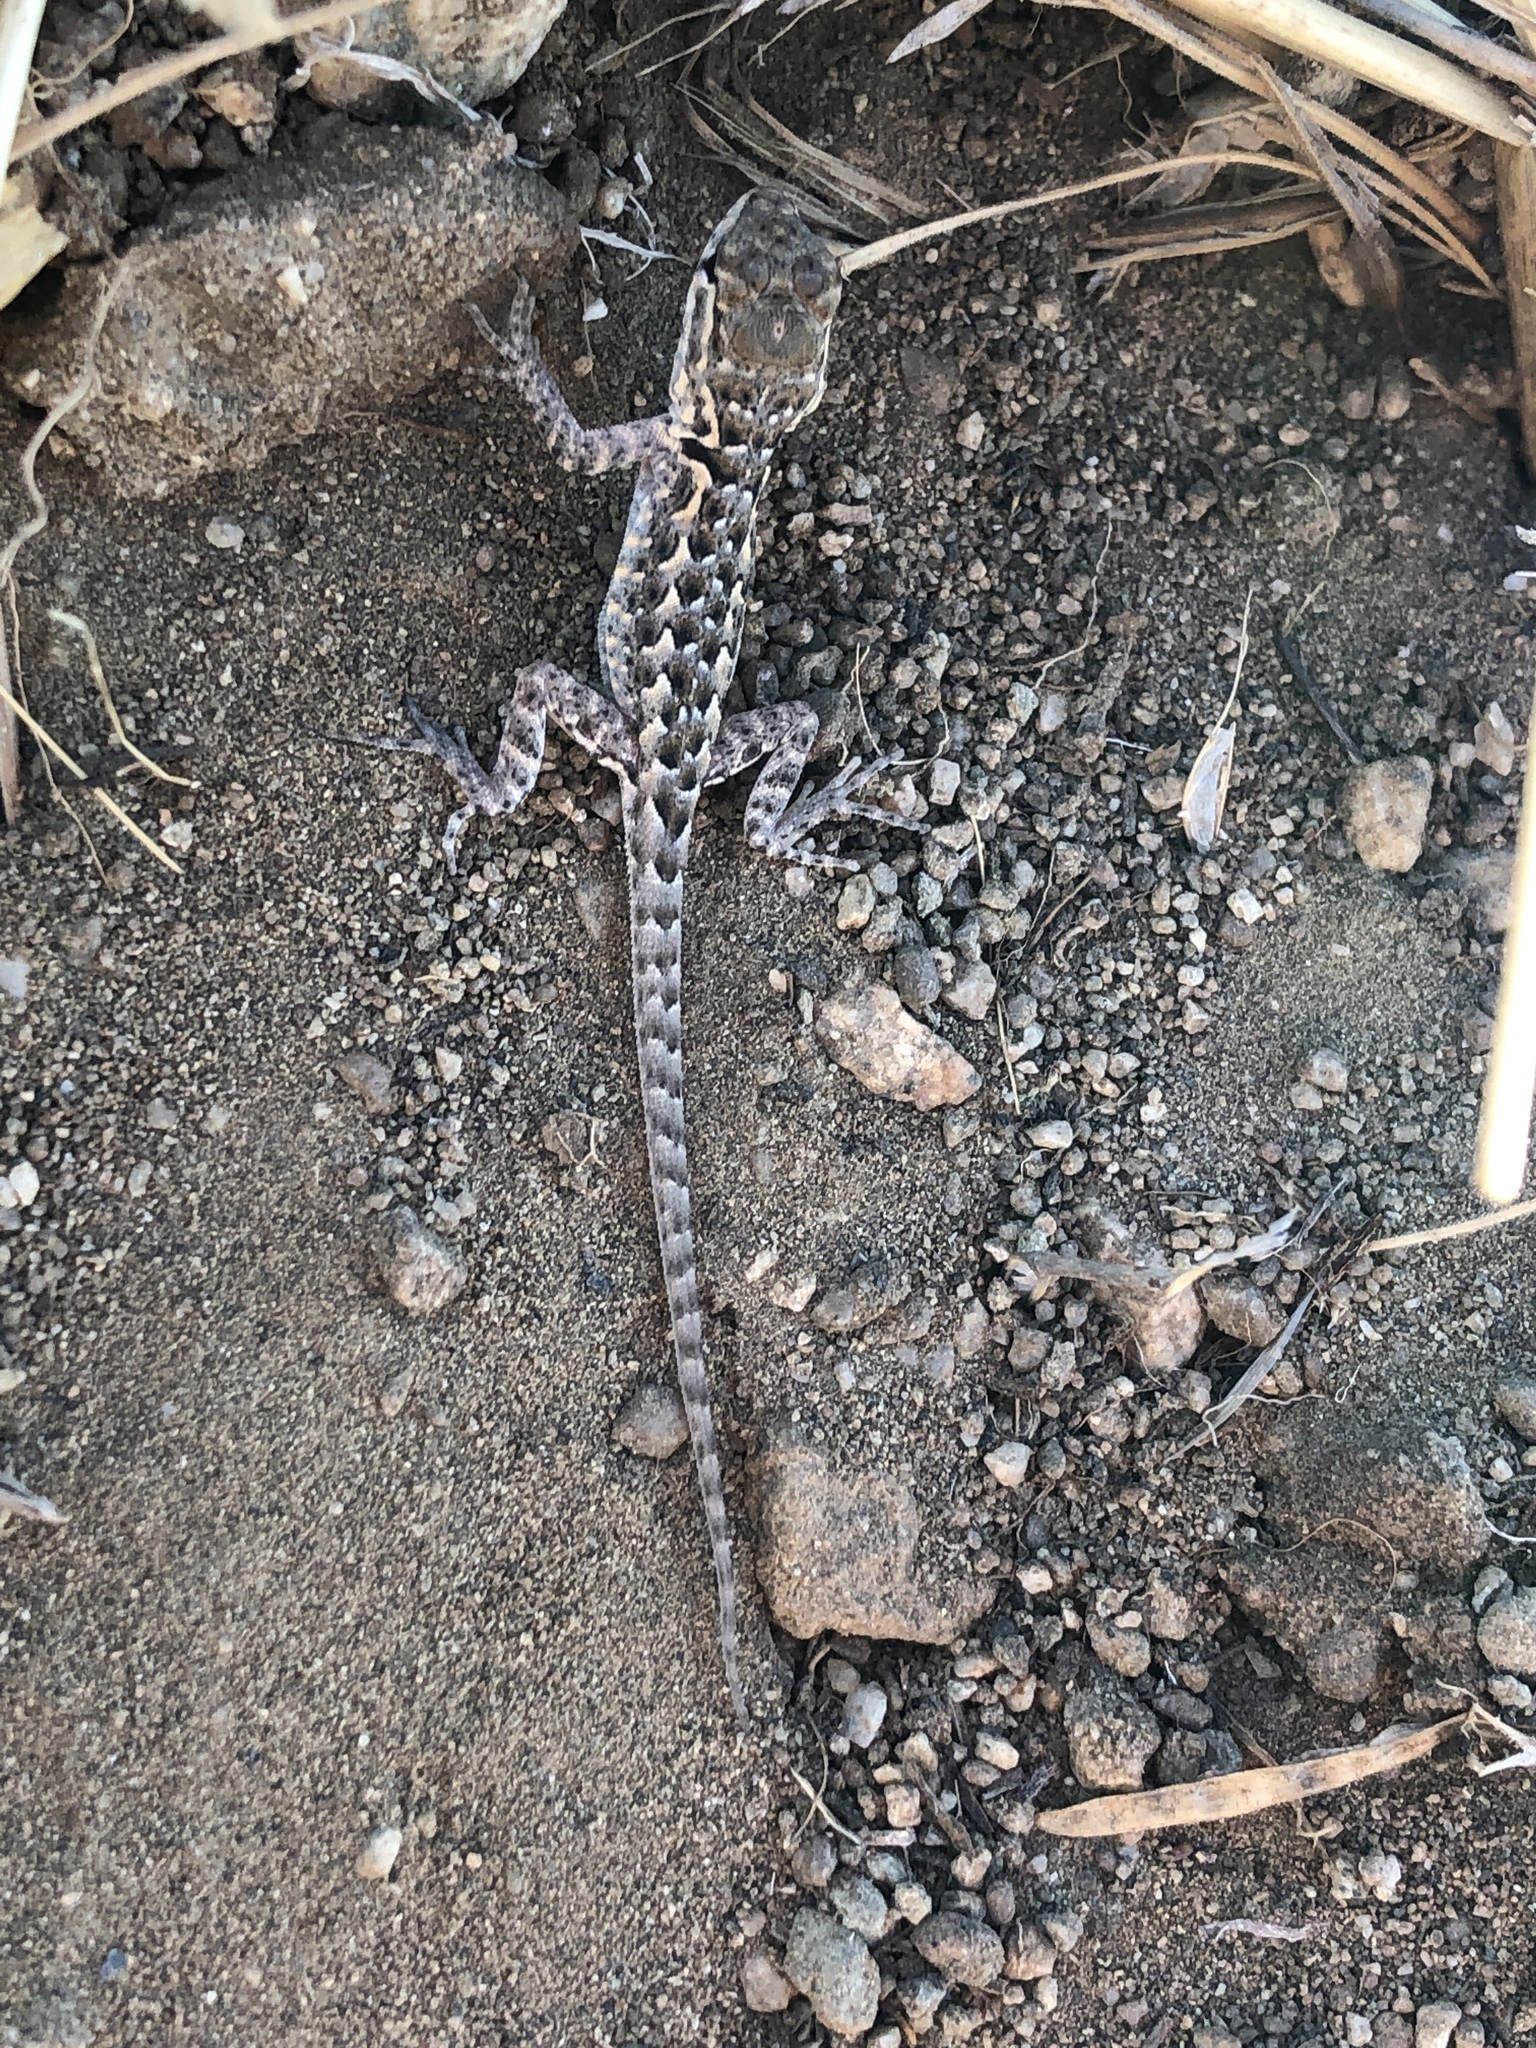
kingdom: Animalia
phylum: Chordata
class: Squamata
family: Phrynosomatidae
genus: Uta
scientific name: Uta stansburiana
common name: Side-blotched lizard
